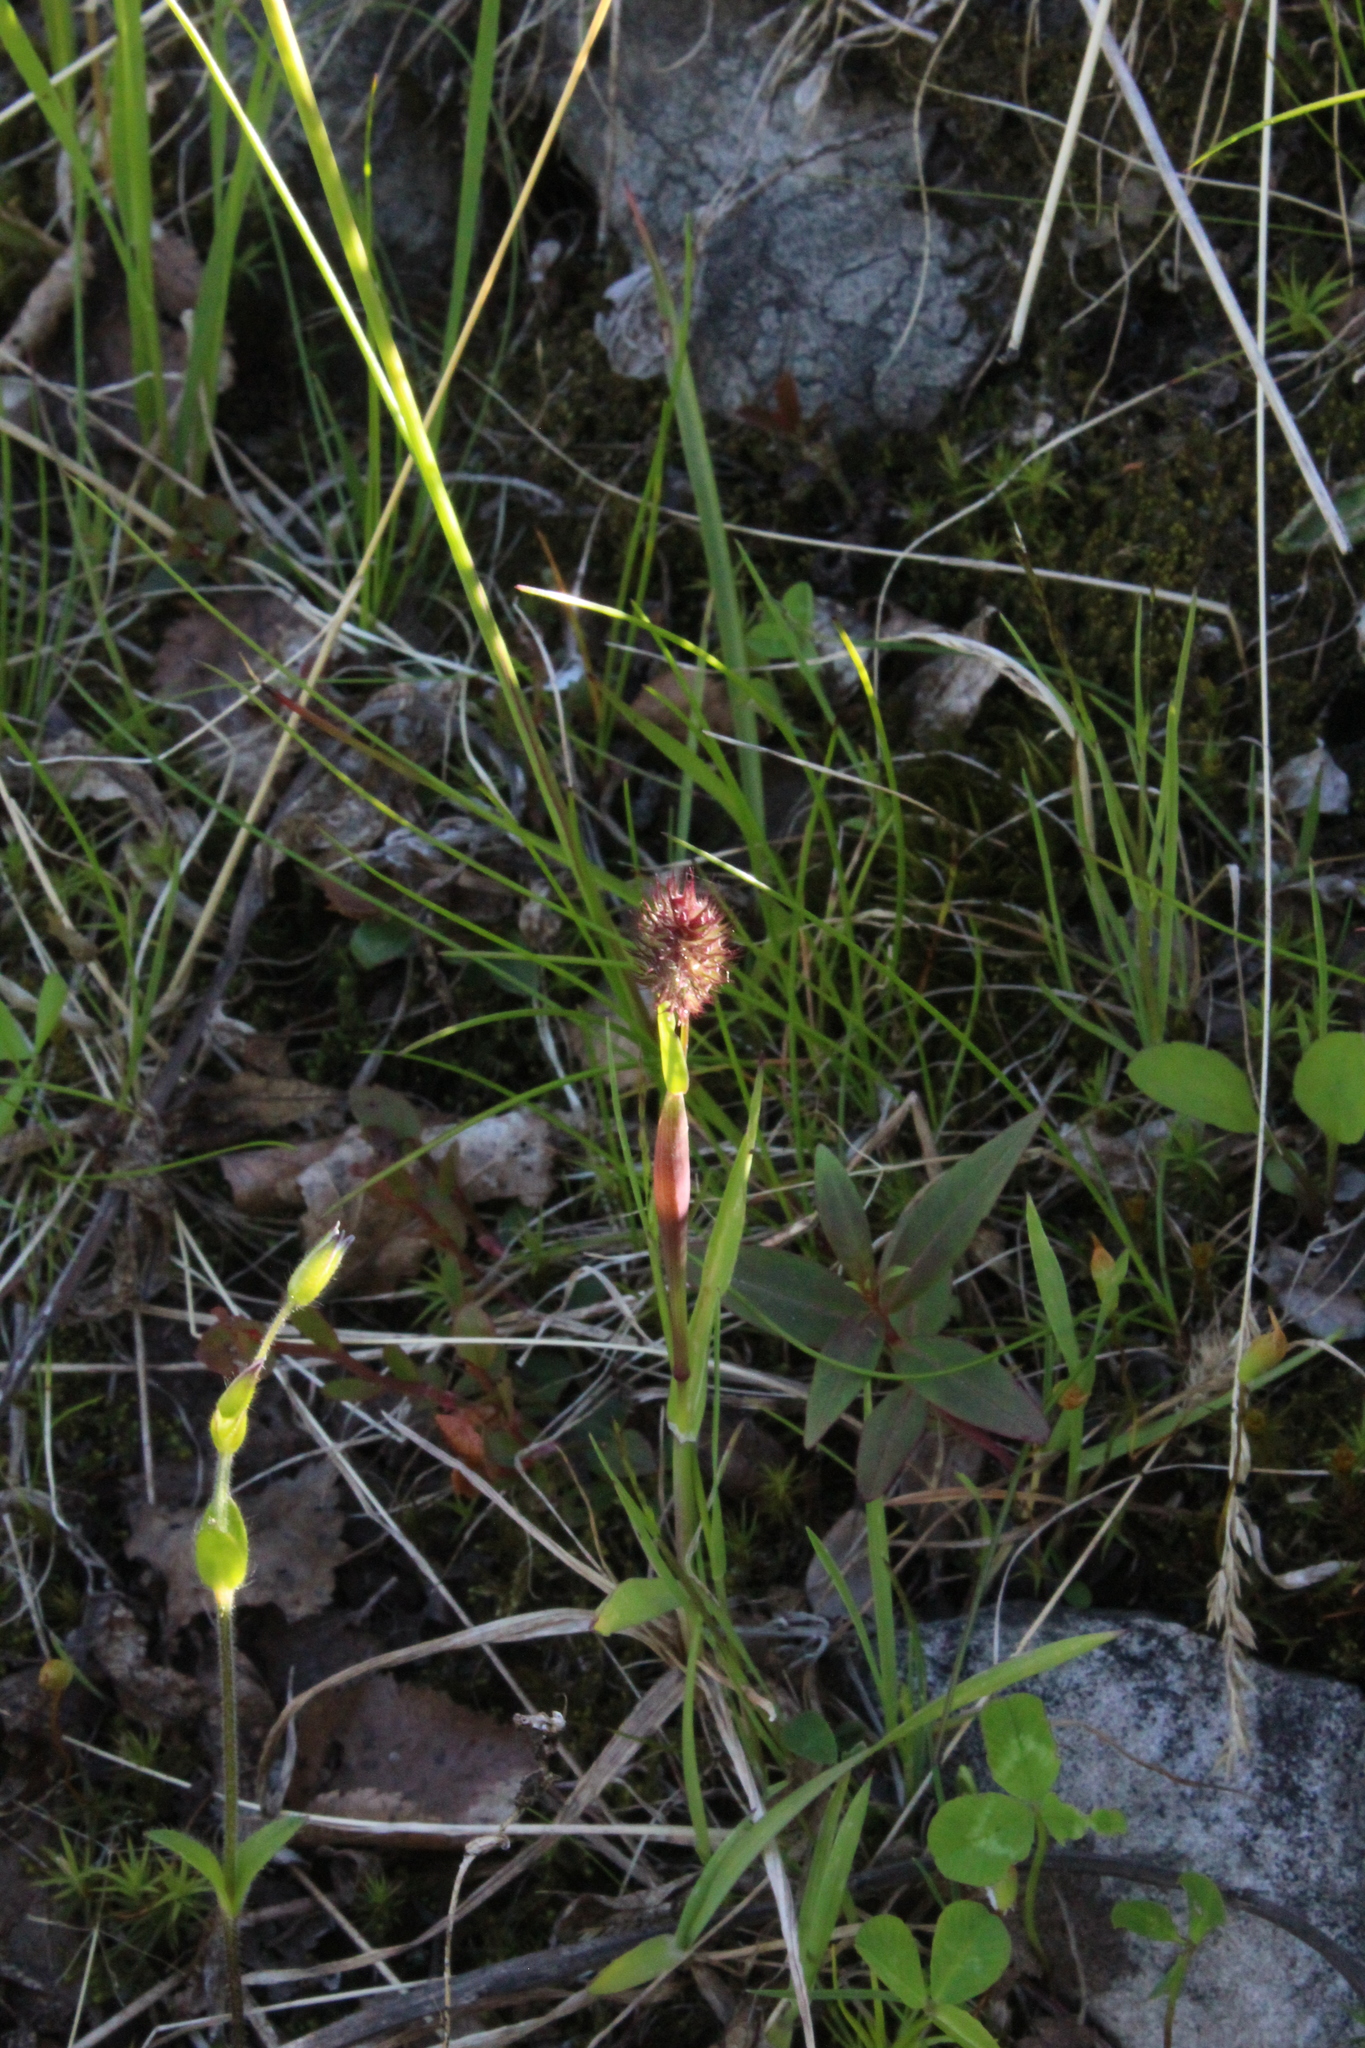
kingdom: Plantae
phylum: Tracheophyta
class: Liliopsida
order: Poales
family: Poaceae
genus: Phleum
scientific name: Phleum alpinum
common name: Alpine cat's-tail
